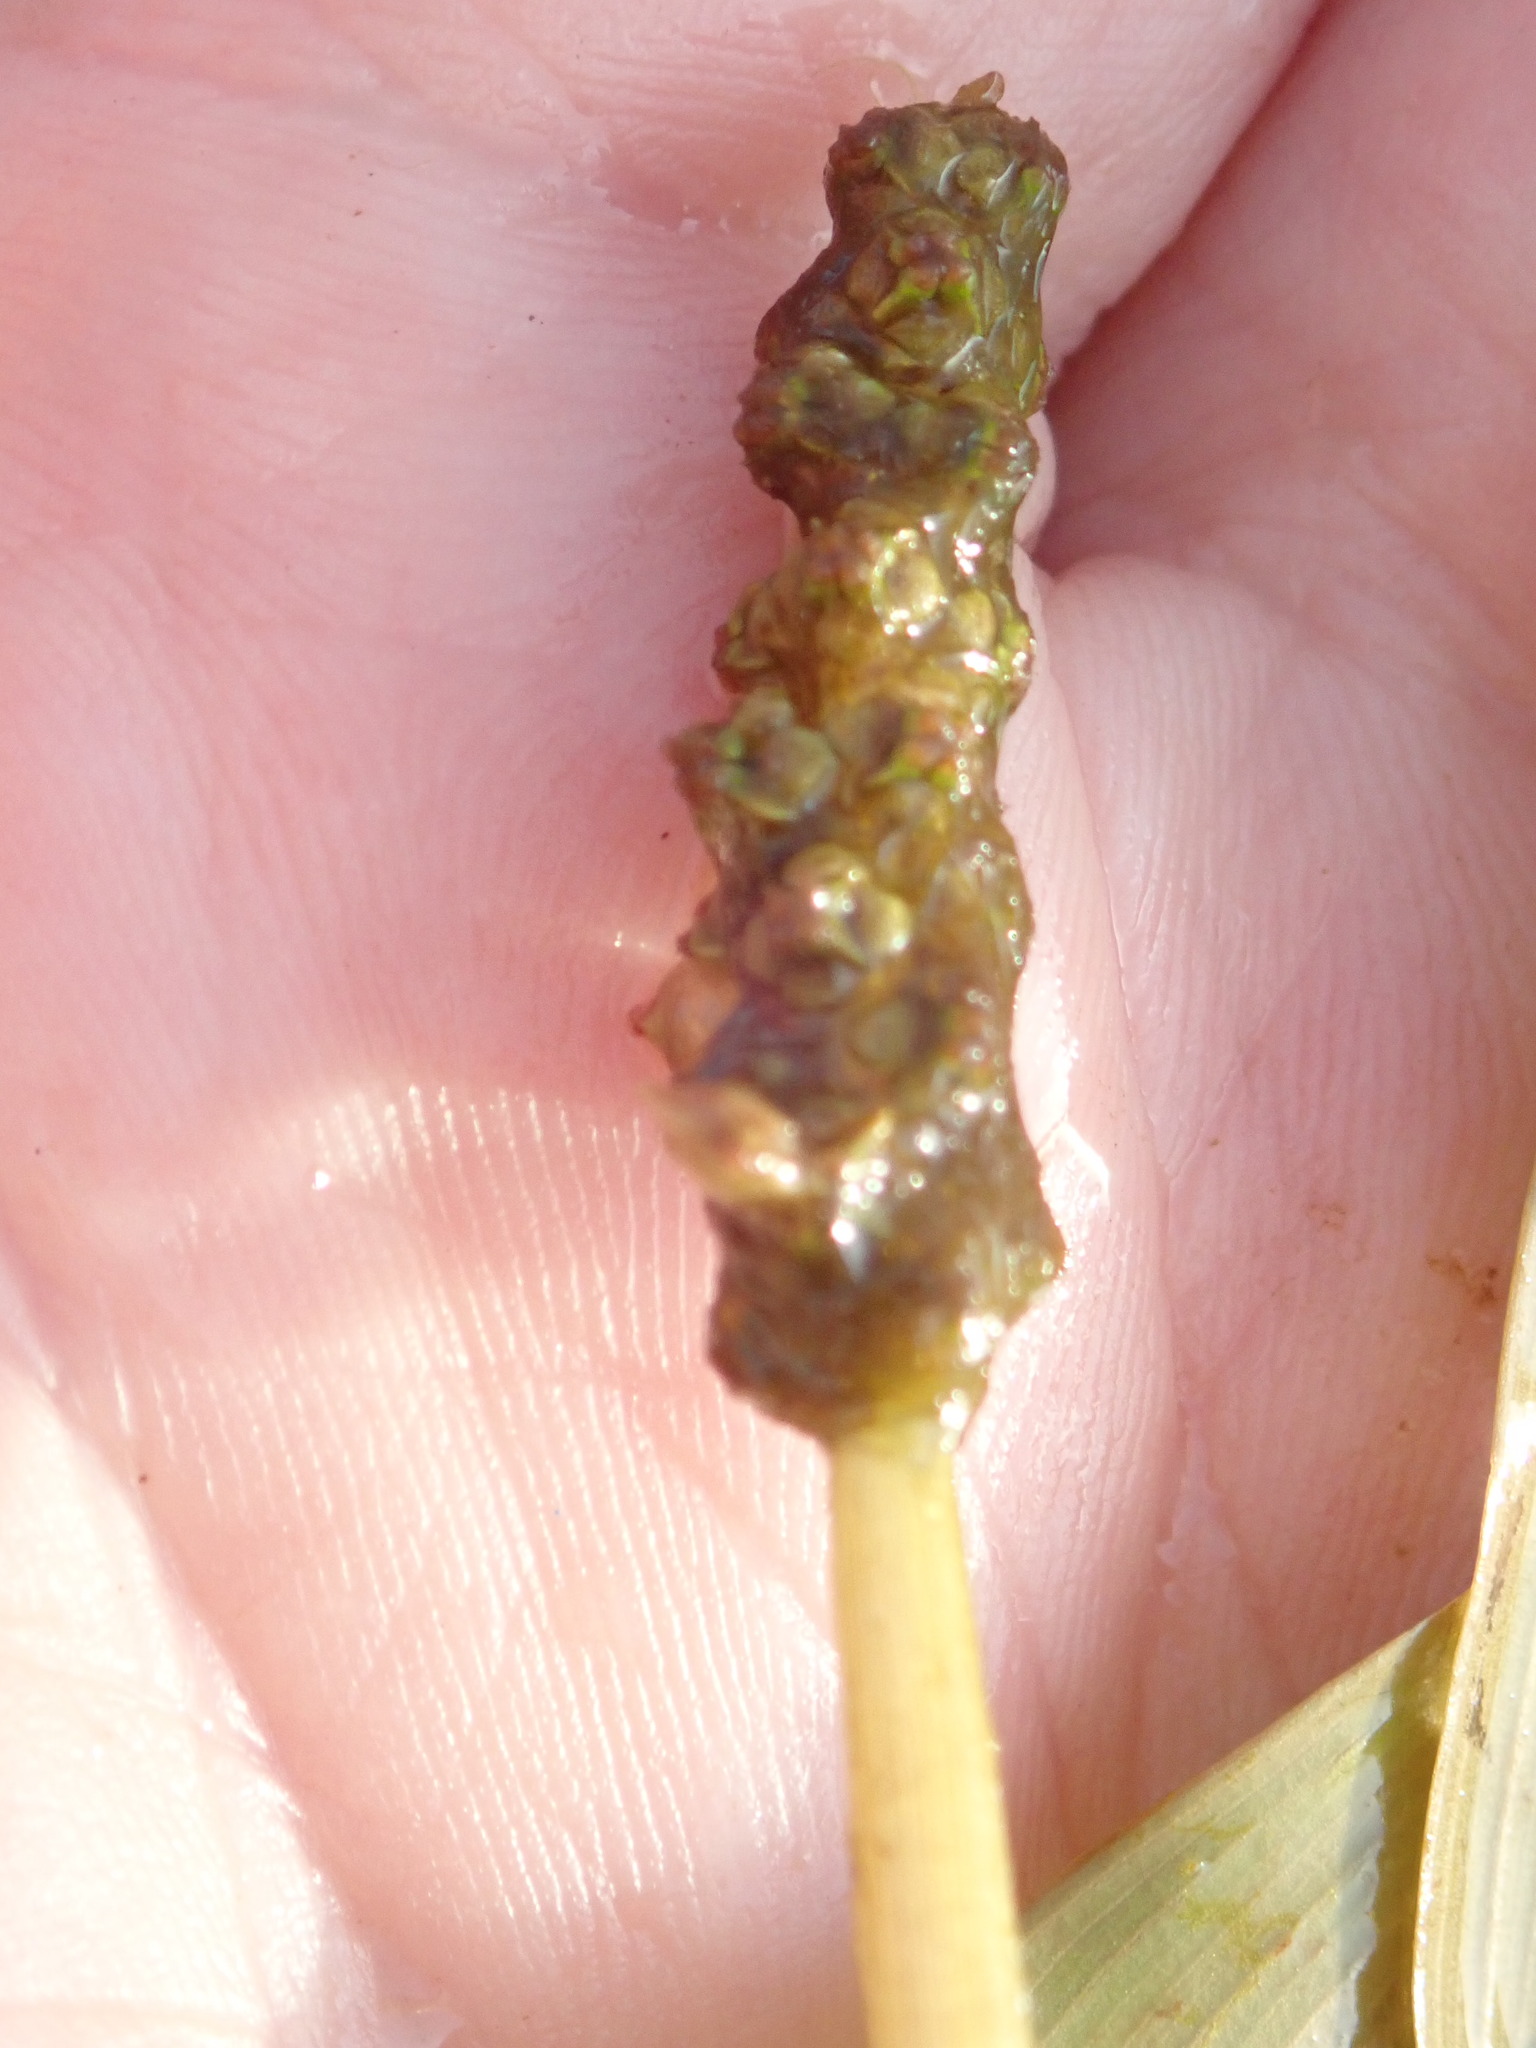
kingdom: Plantae
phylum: Tracheophyta
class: Liliopsida
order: Alismatales
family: Potamogetonaceae
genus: Potamogeton
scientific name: Potamogeton epihydrus
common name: American pondweed
